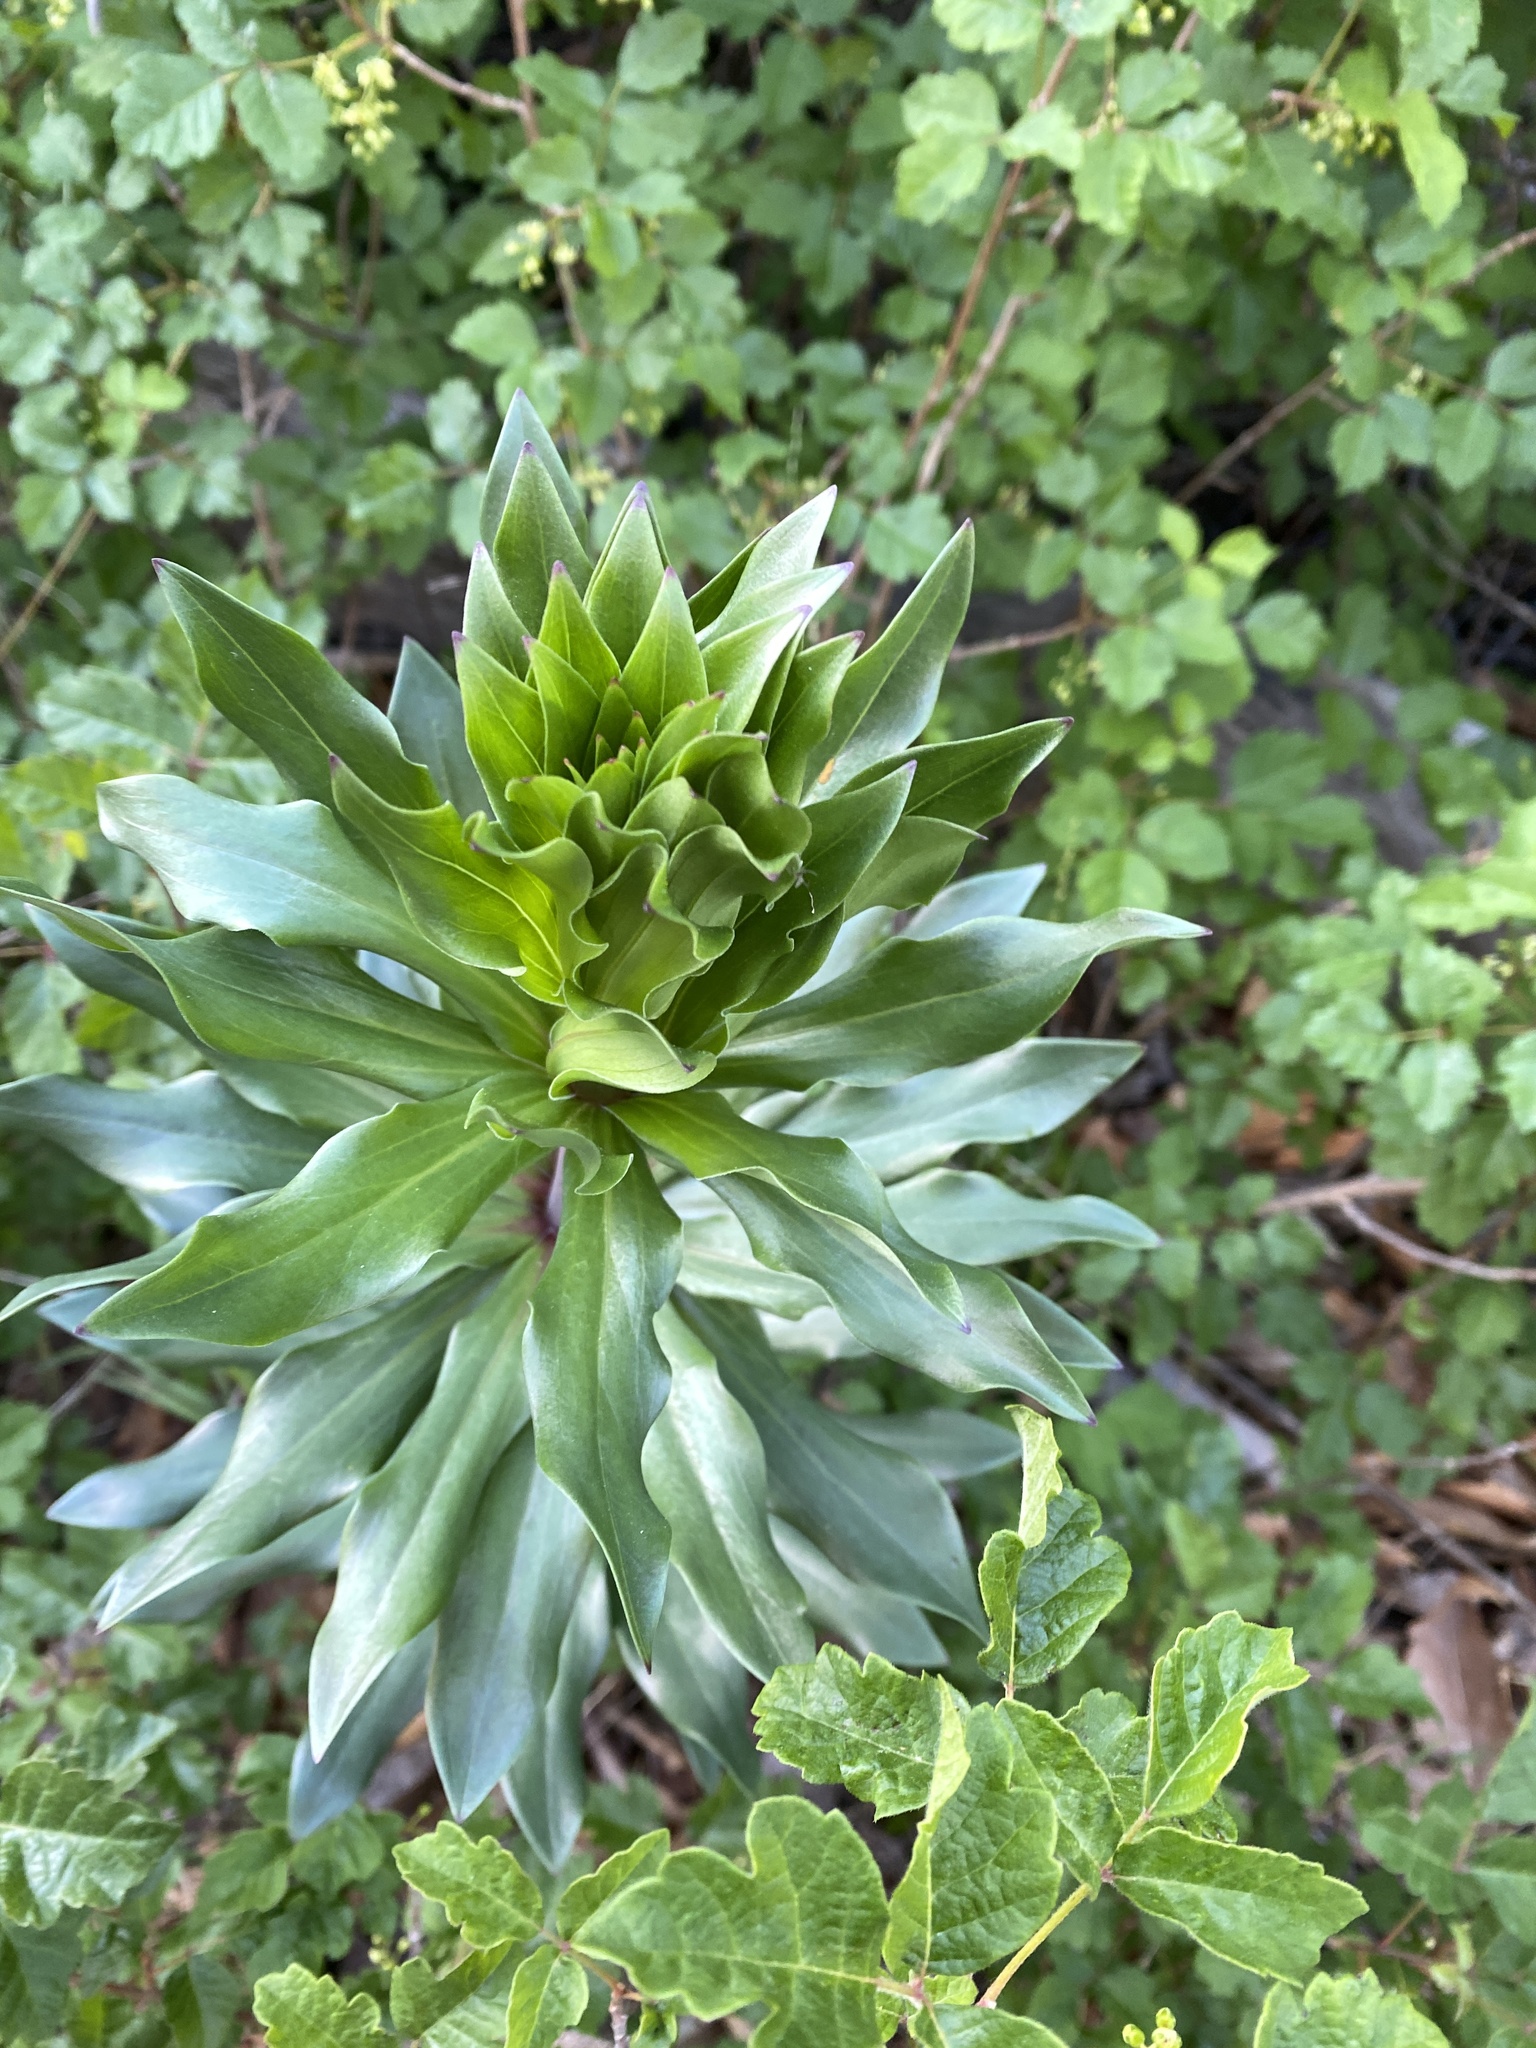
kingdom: Plantae
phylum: Tracheophyta
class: Liliopsida
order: Liliales
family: Liliaceae
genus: Lilium
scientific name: Lilium humboldtii
